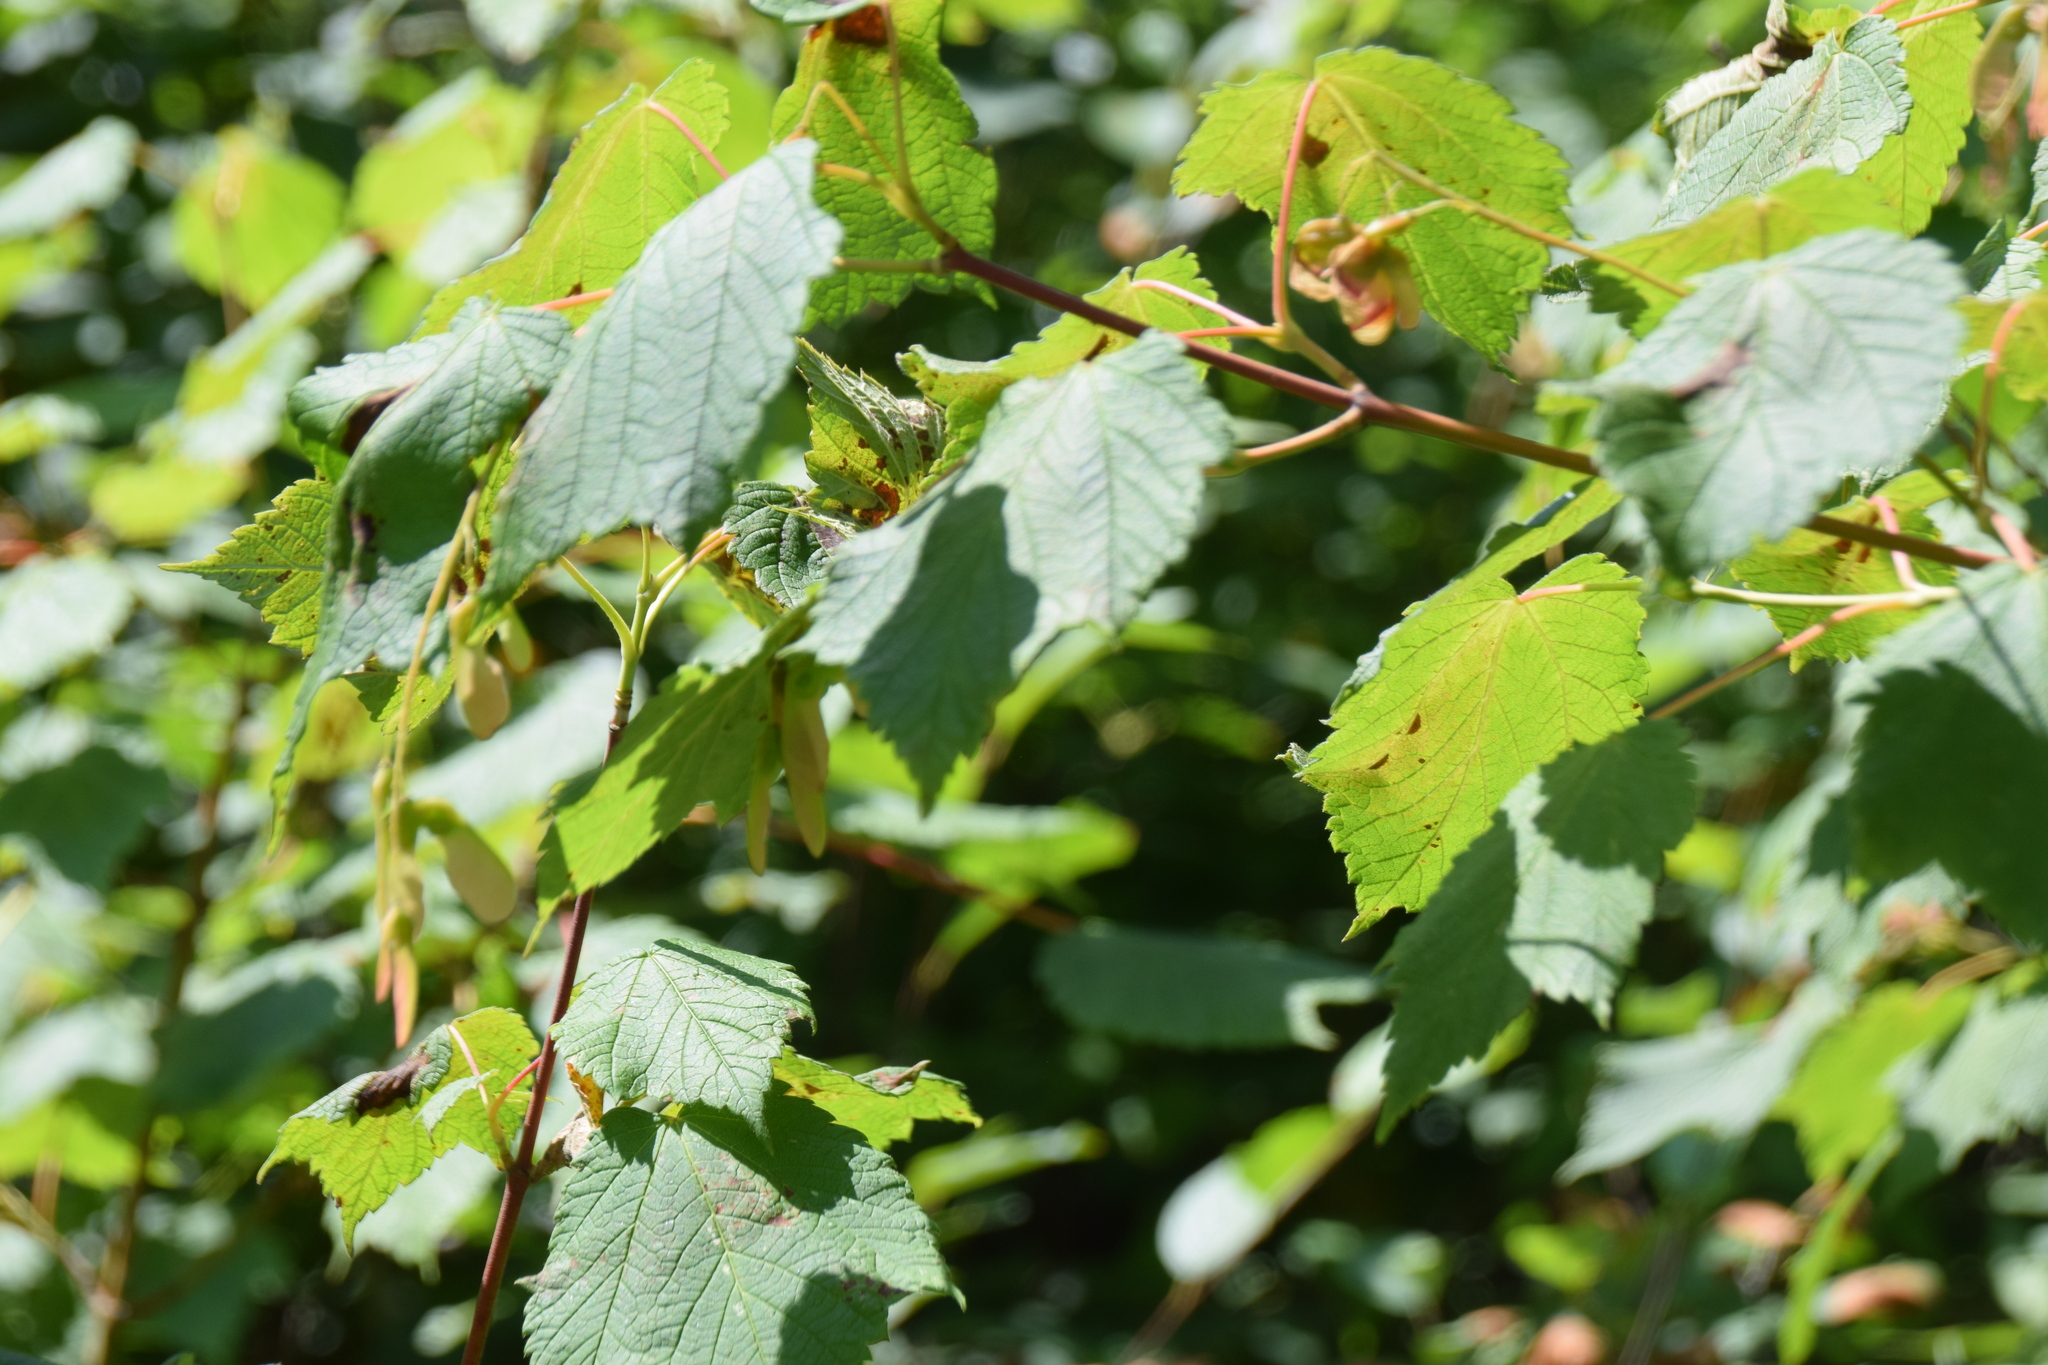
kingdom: Plantae
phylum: Tracheophyta
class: Magnoliopsida
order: Sapindales
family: Sapindaceae
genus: Acer
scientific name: Acer spicatum
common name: Mountain maple
